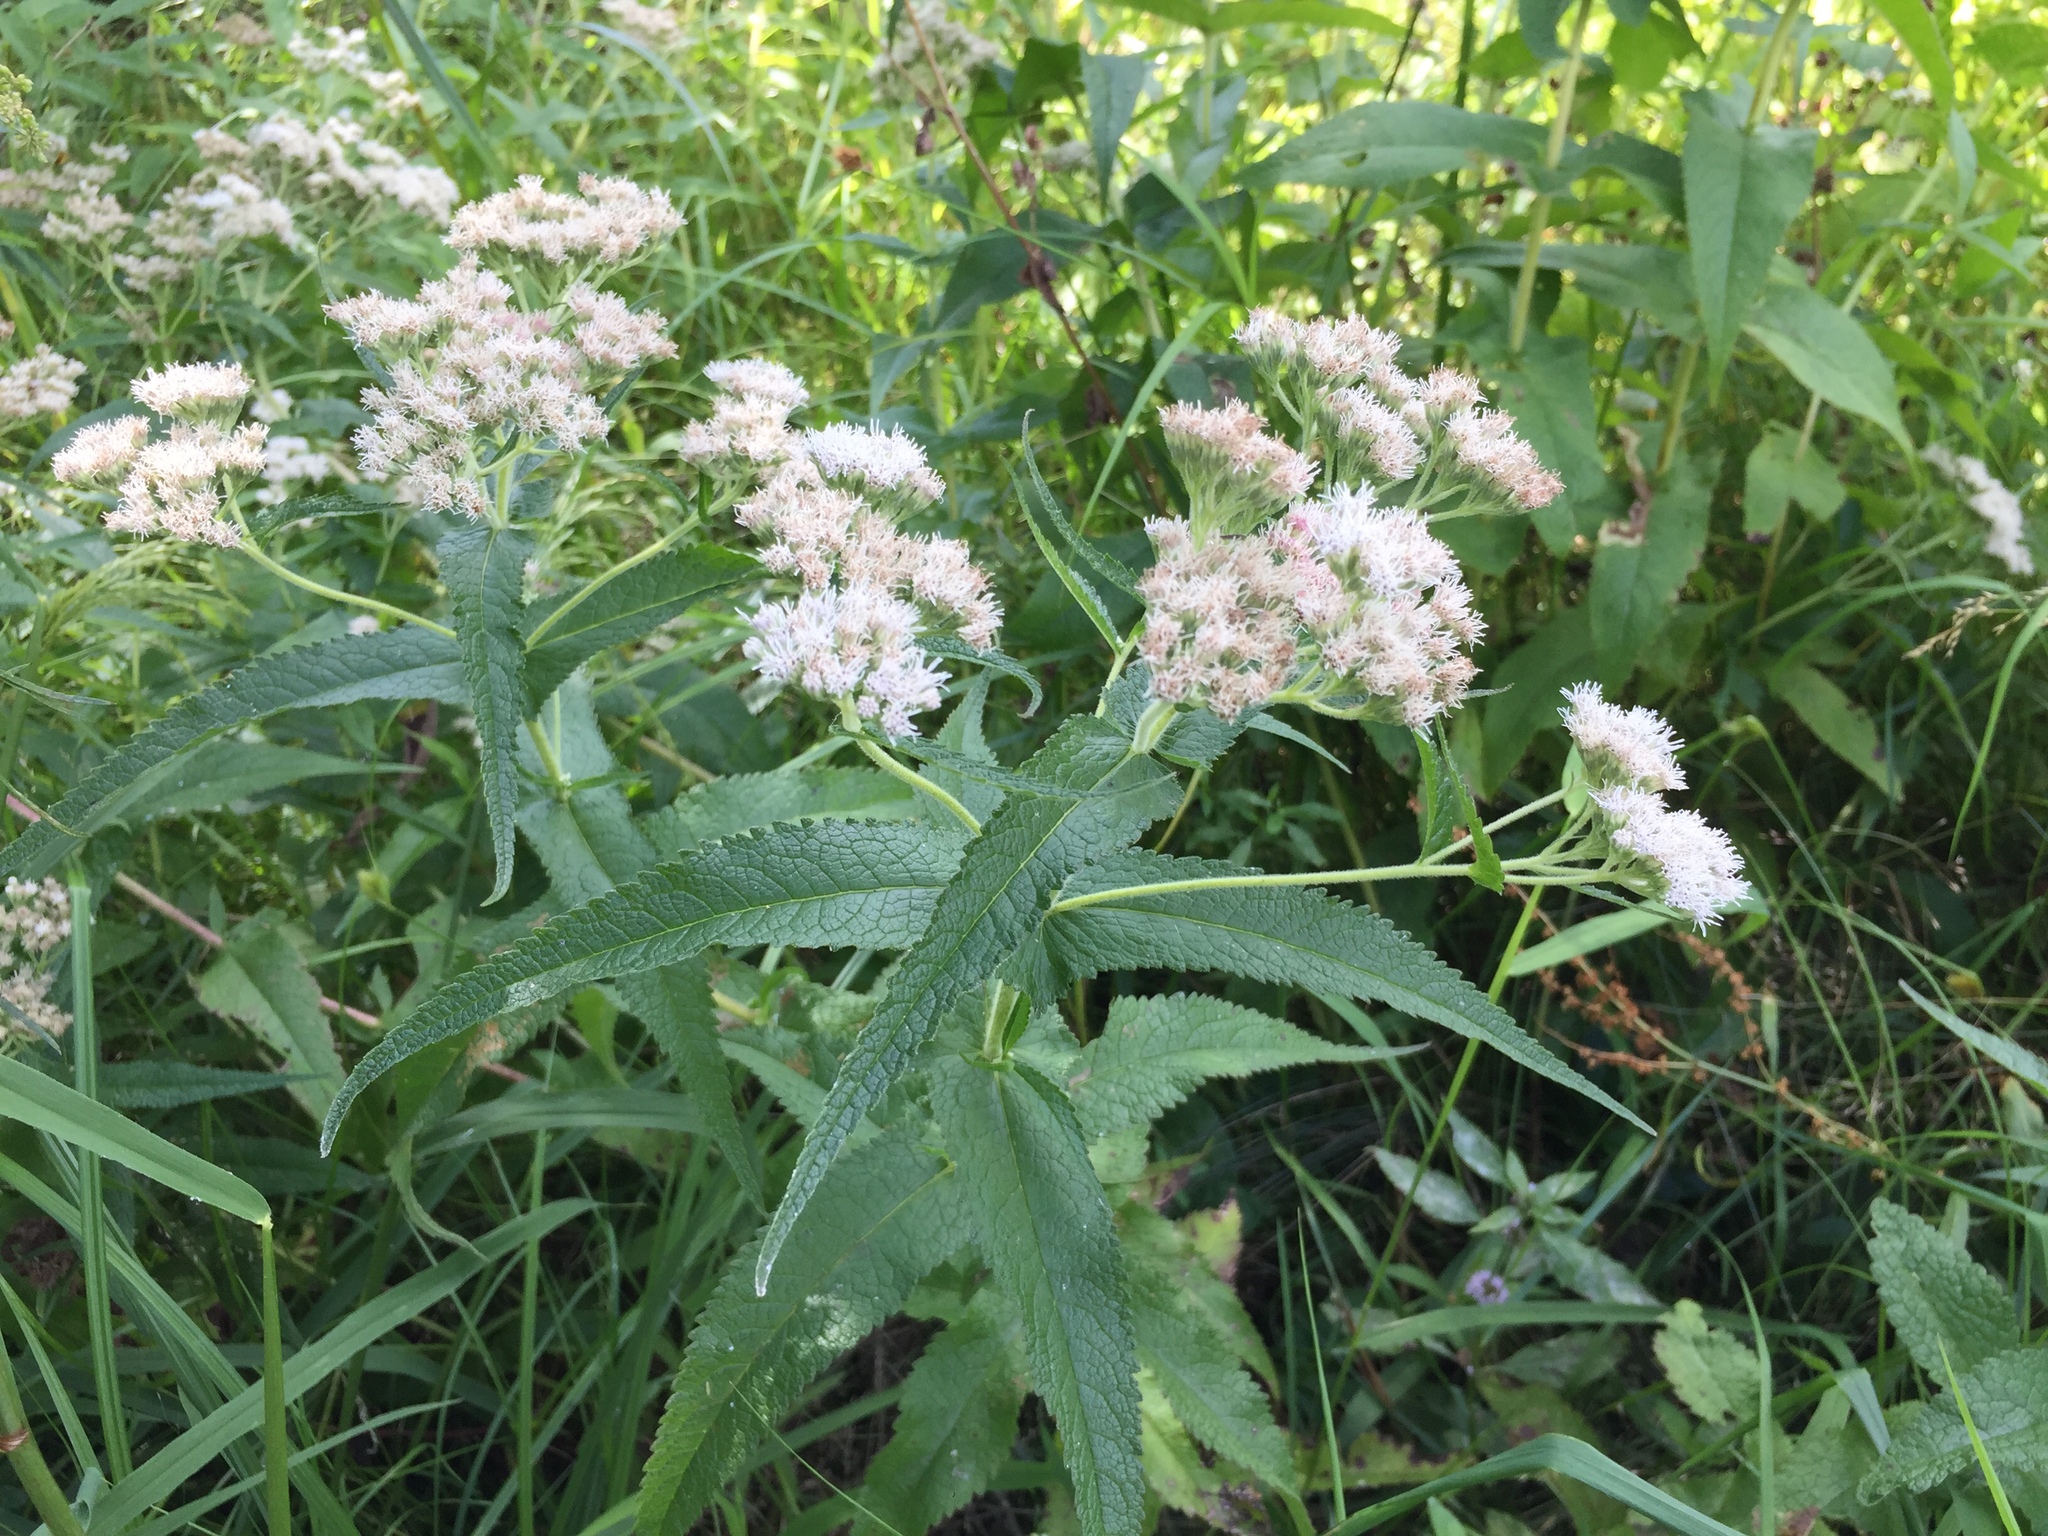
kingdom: Plantae
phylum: Tracheophyta
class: Magnoliopsida
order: Asterales
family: Asteraceae
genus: Eupatorium
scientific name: Eupatorium perfoliatum
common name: Boneset
